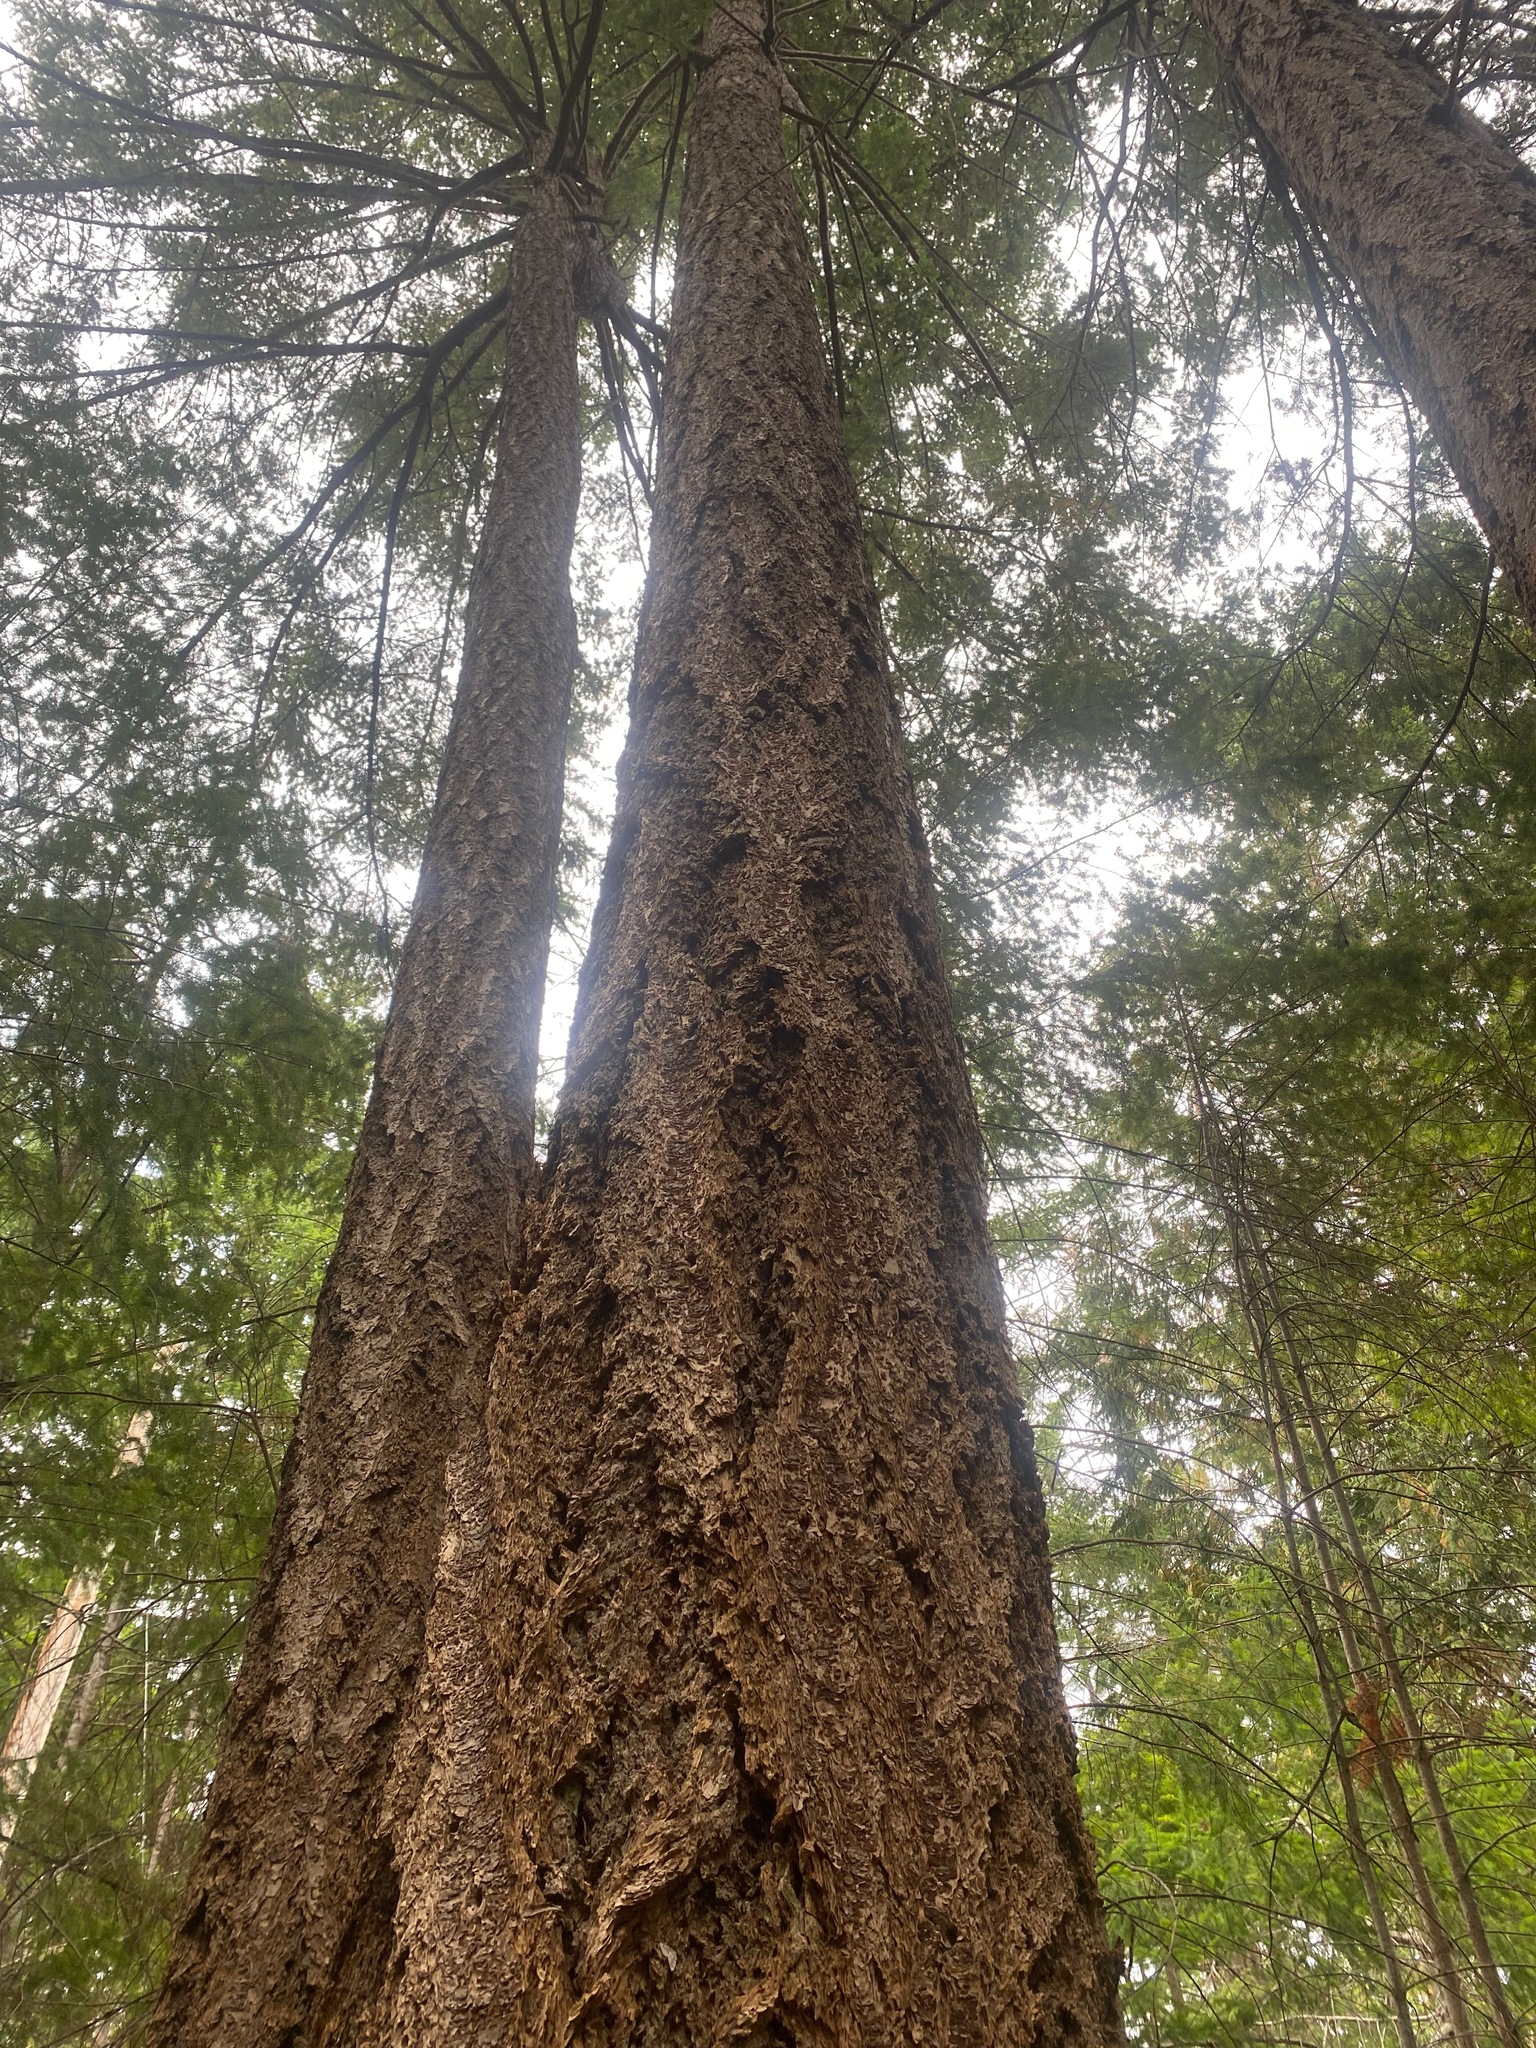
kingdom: Plantae
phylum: Tracheophyta
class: Pinopsida
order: Pinales
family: Pinaceae
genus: Pseudotsuga
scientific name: Pseudotsuga menziesii
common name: Douglas fir
